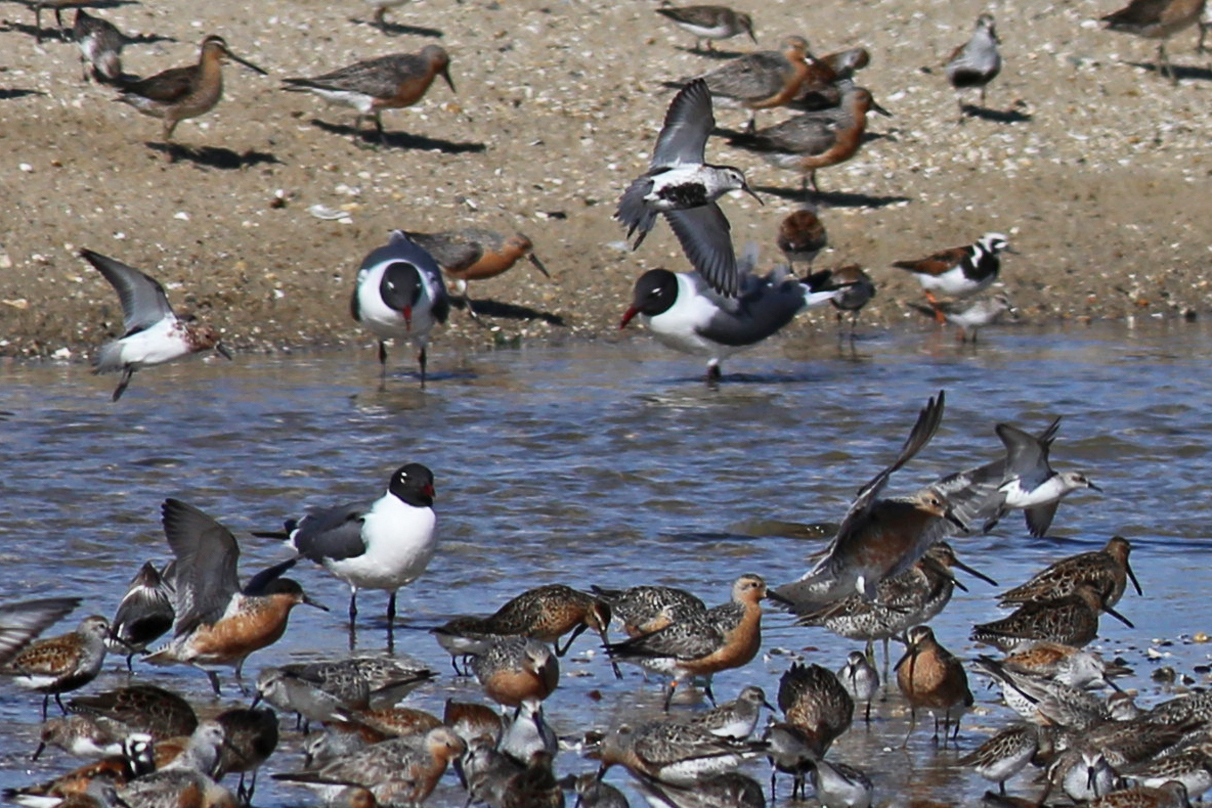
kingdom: Animalia
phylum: Chordata
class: Aves
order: Charadriiformes
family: Scolopacidae
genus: Calidris
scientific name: Calidris alba
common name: Sanderling
